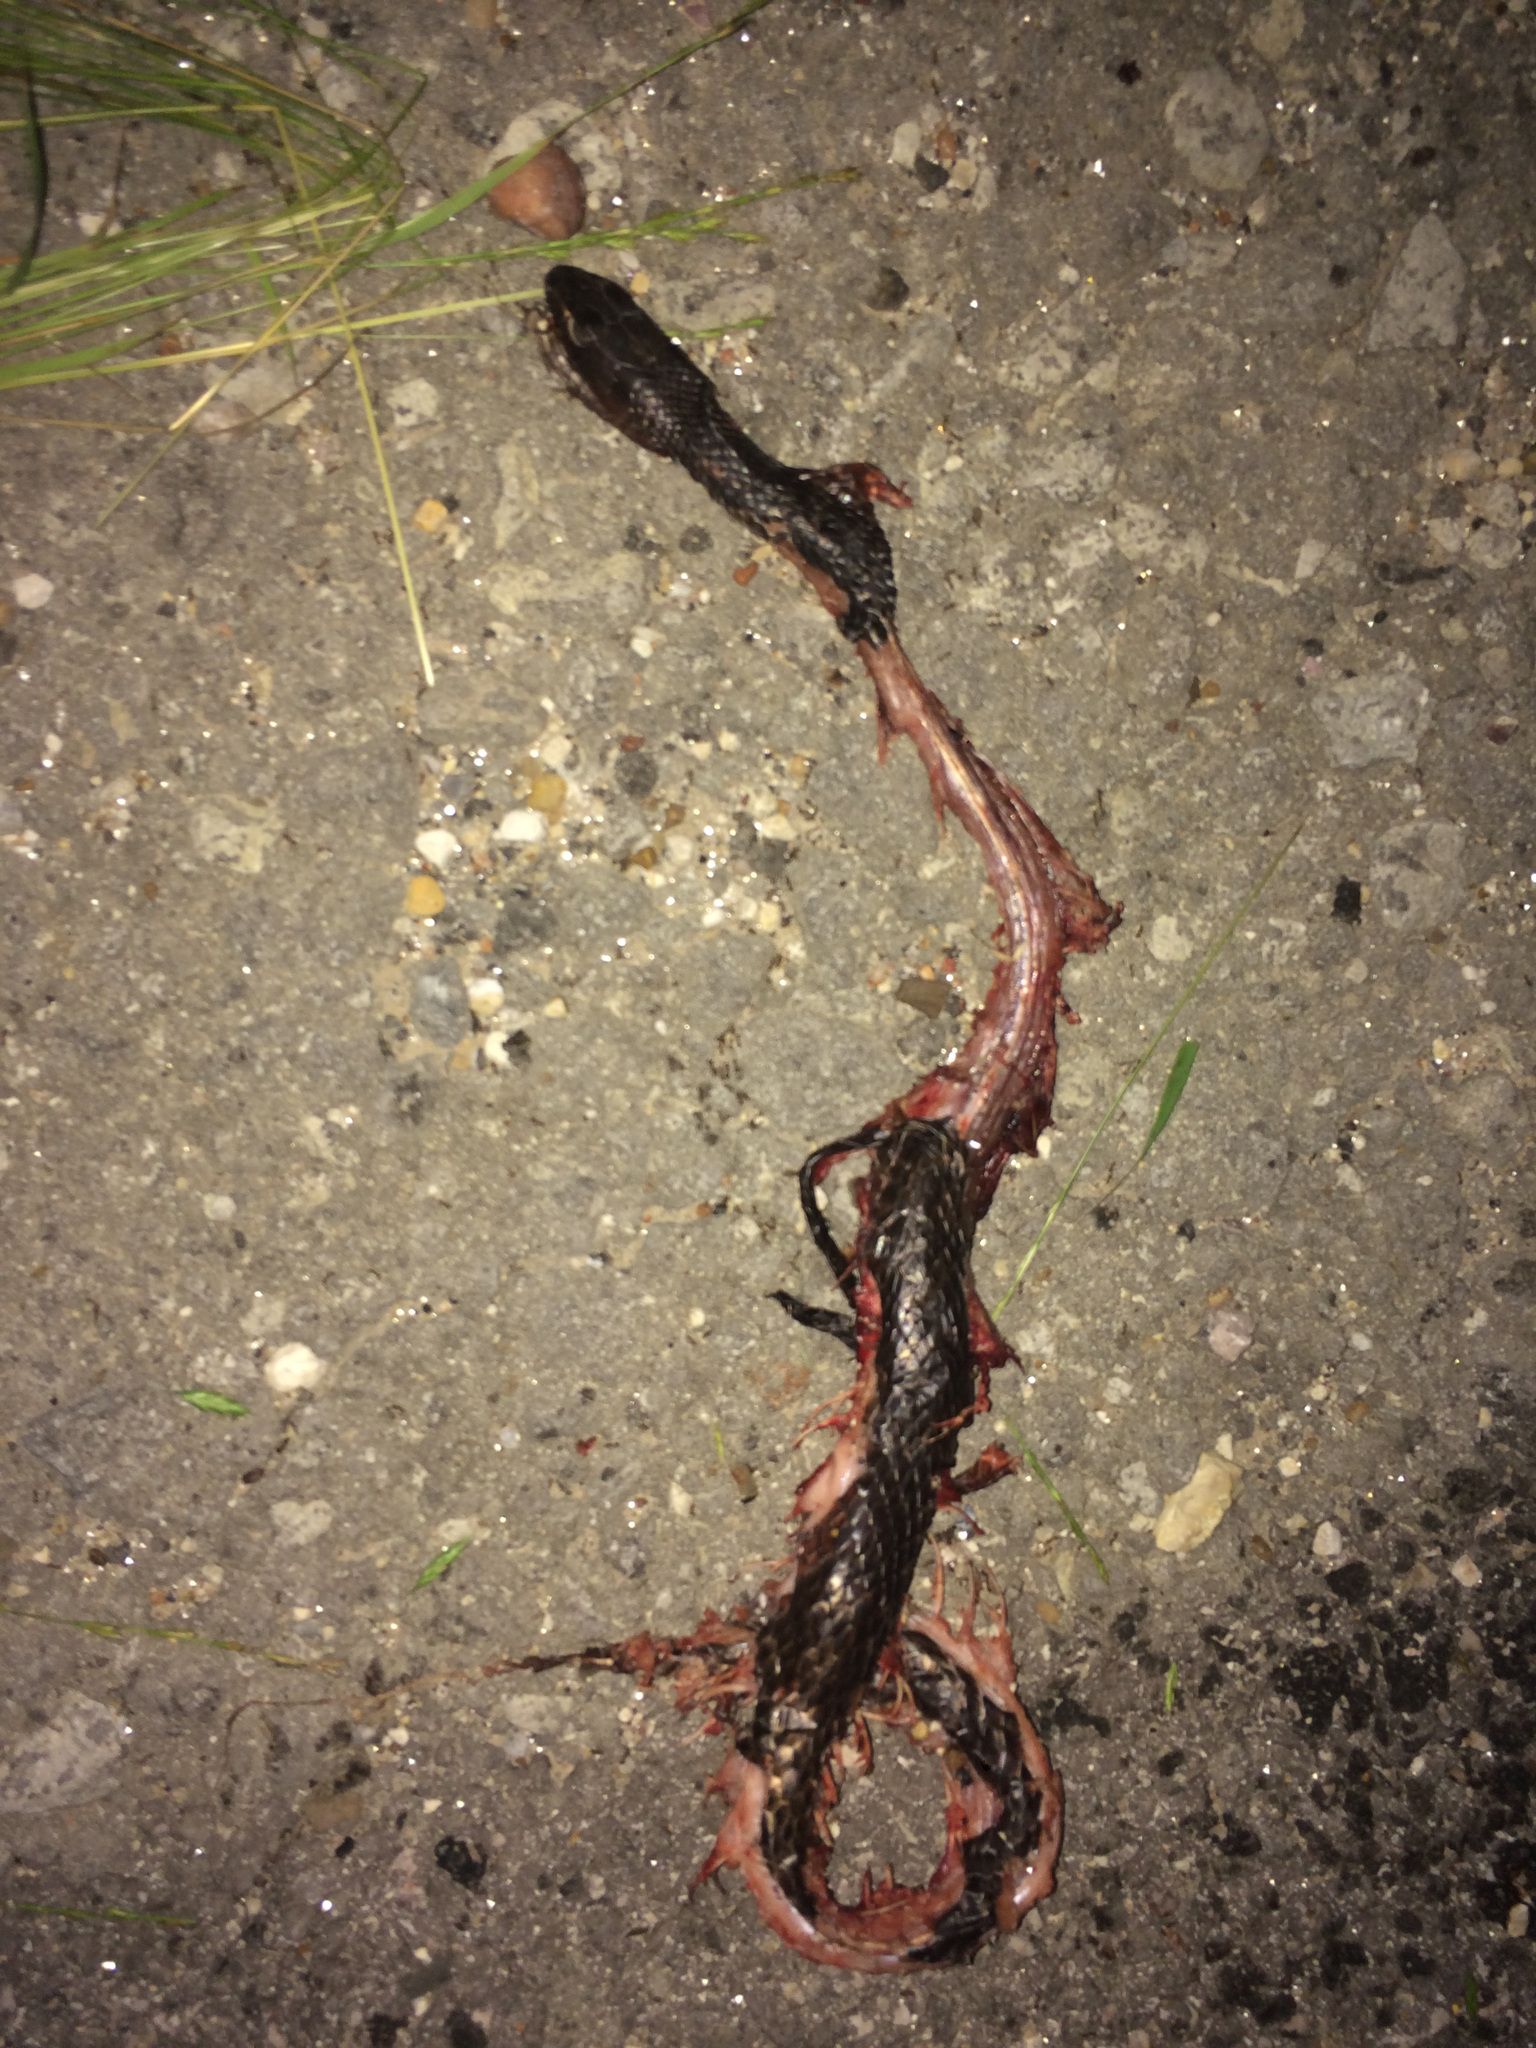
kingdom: Animalia
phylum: Chordata
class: Squamata
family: Colubridae
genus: Masticophis
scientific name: Masticophis flagellum
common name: Coachwhip
